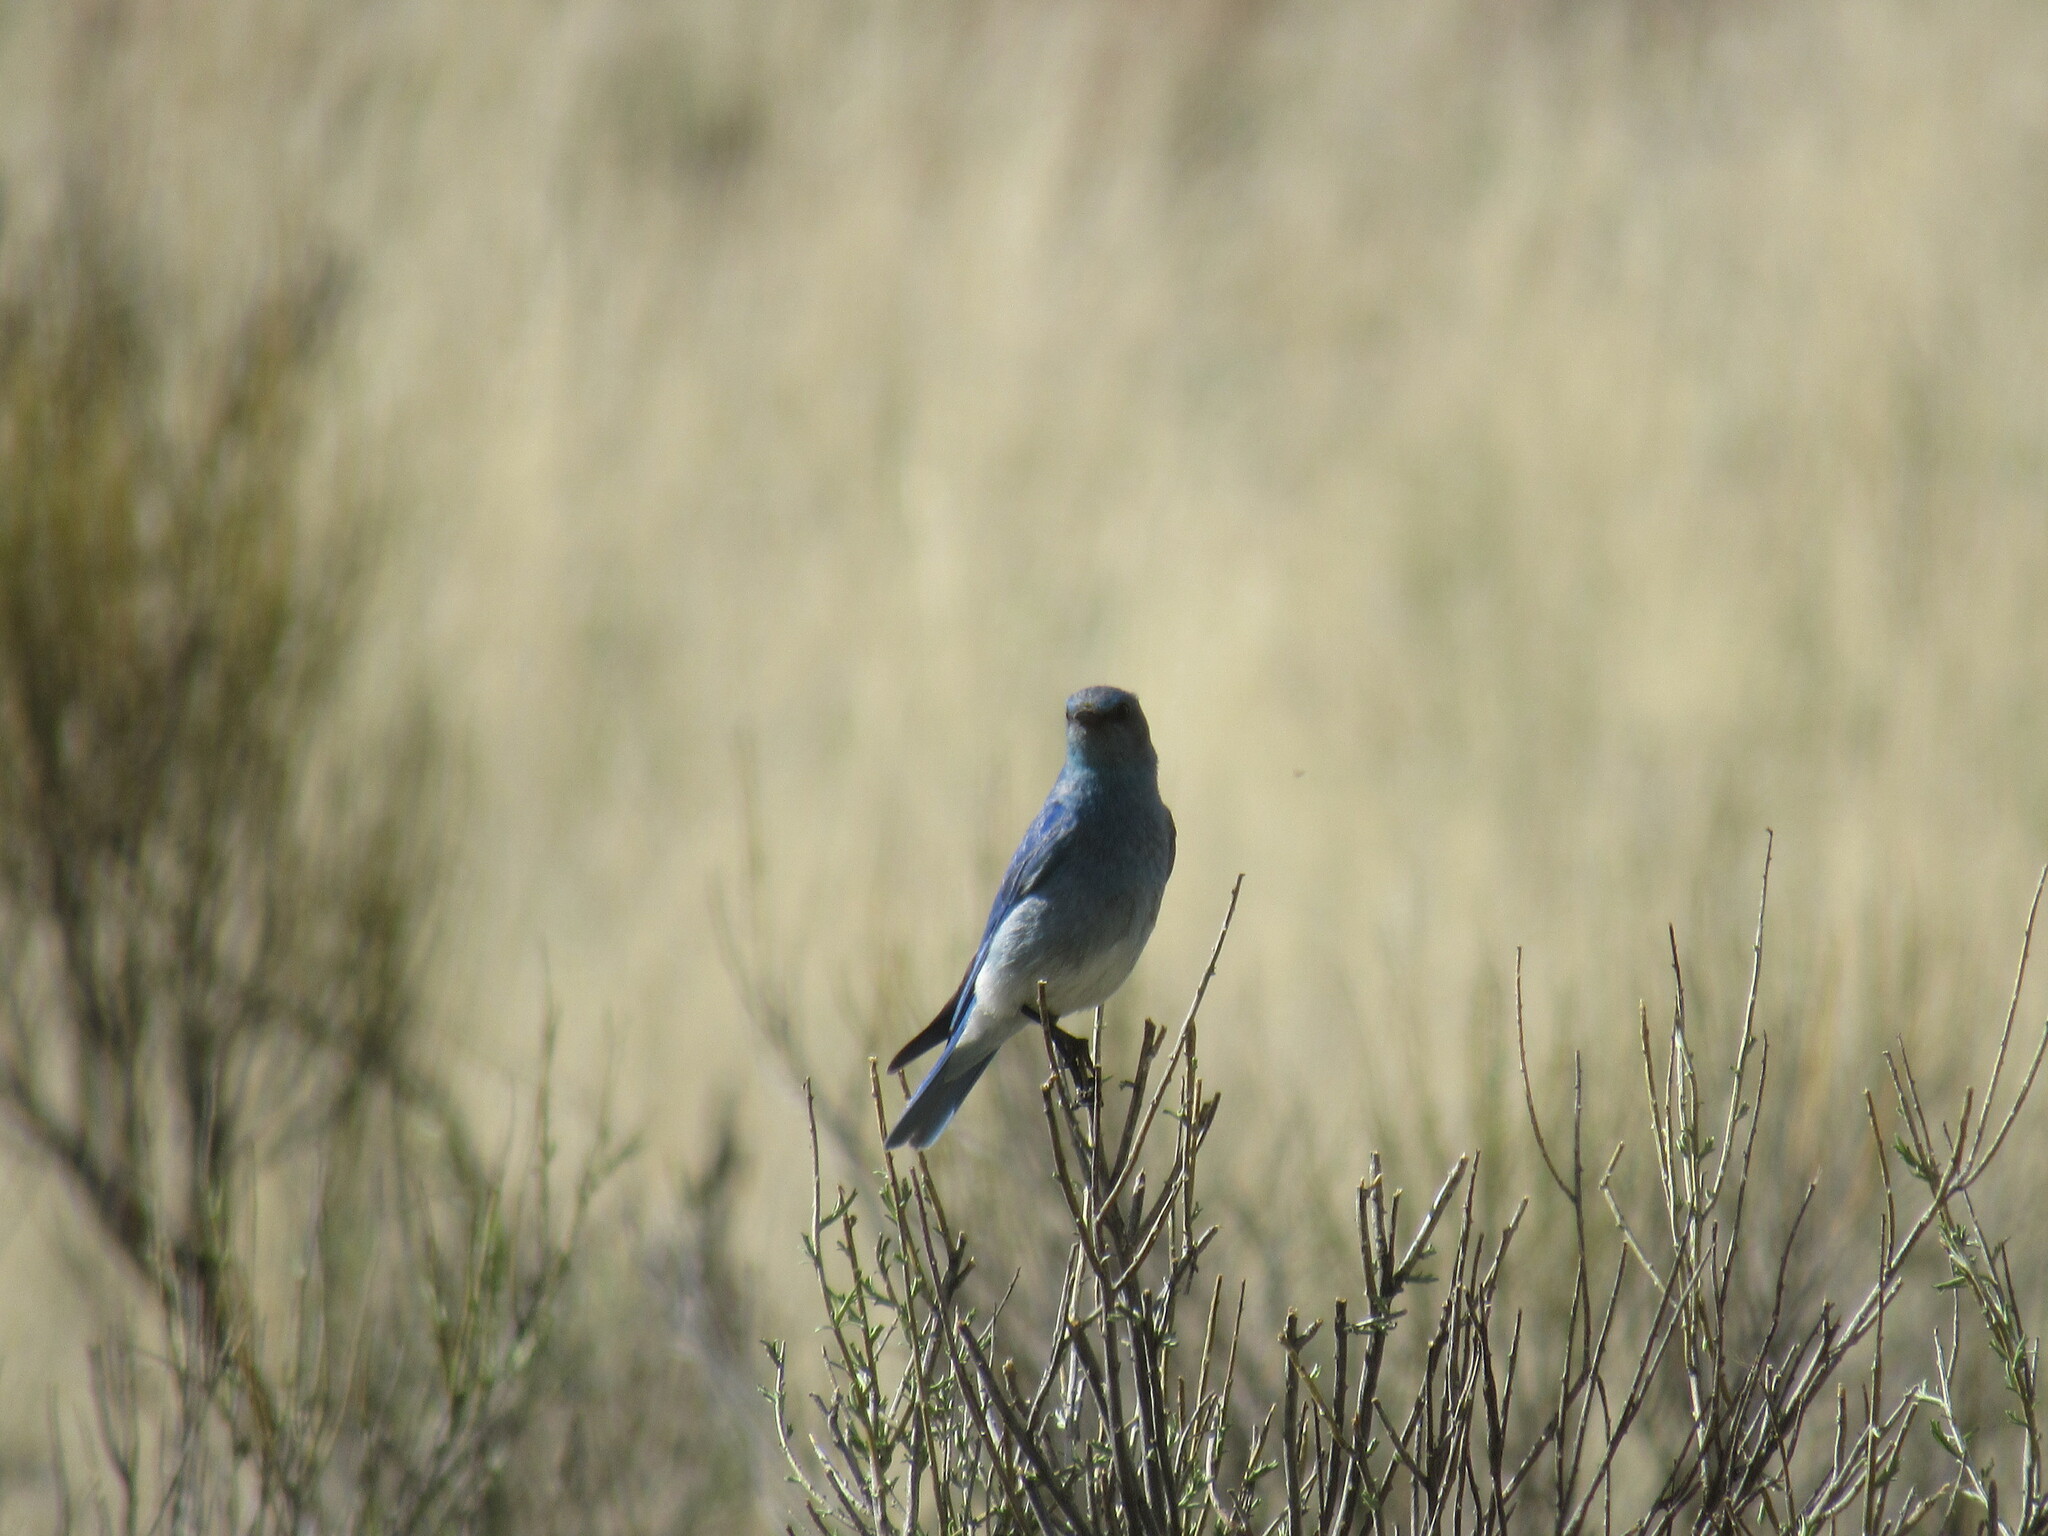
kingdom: Animalia
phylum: Chordata
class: Aves
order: Passeriformes
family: Turdidae
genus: Sialia
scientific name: Sialia currucoides
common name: Mountain bluebird
